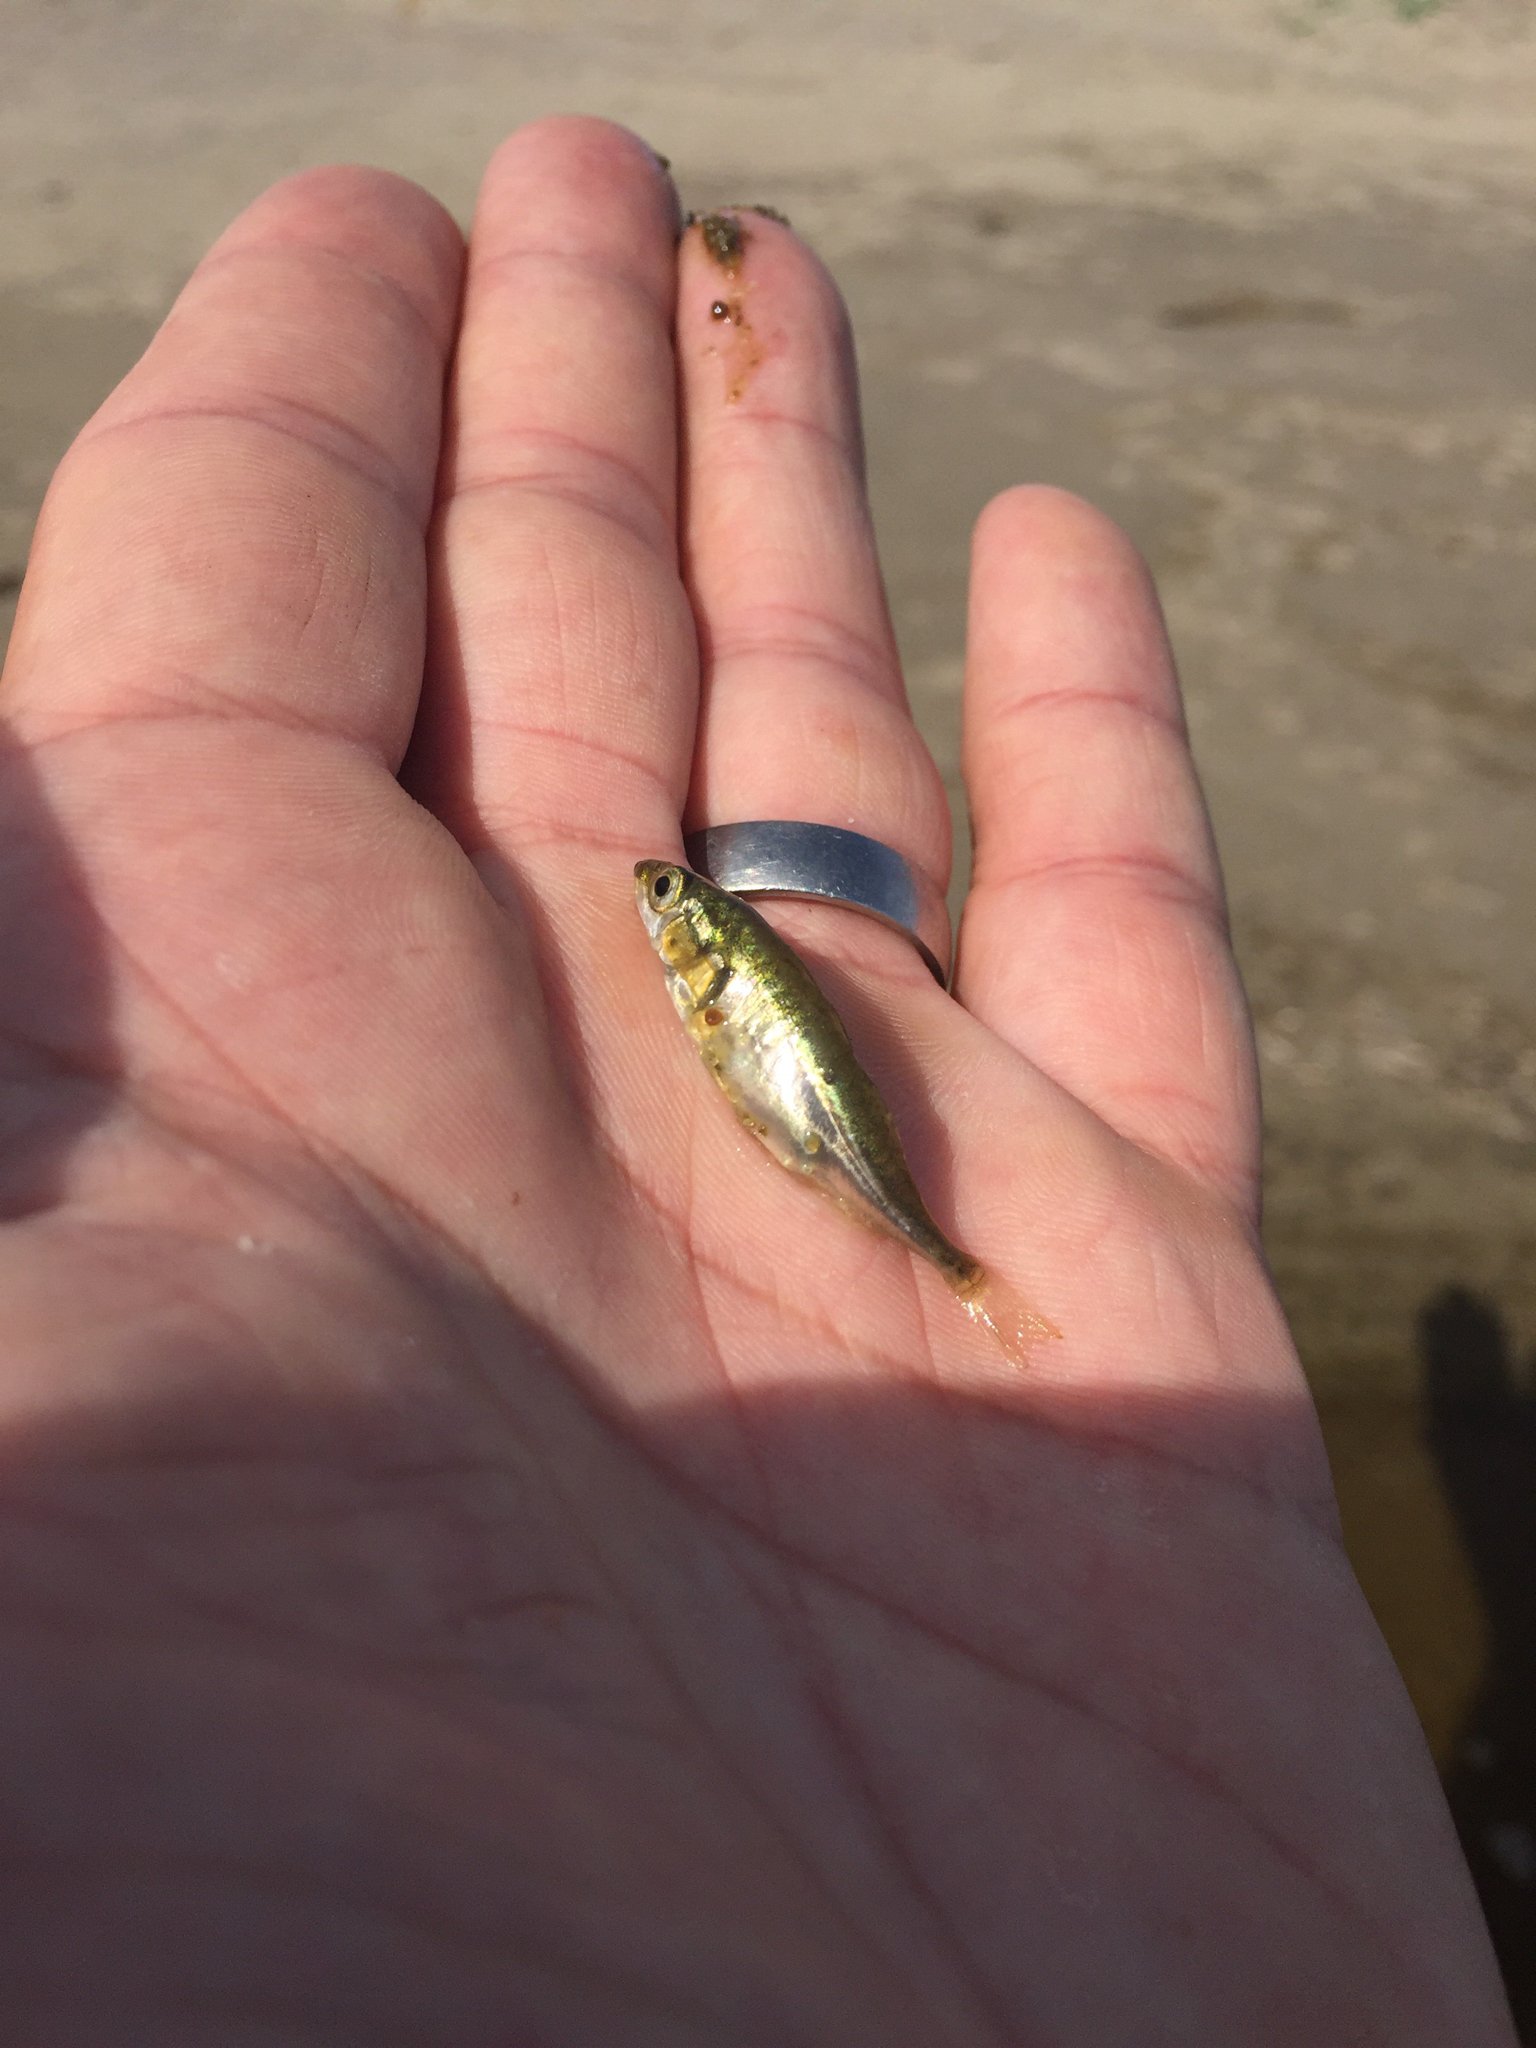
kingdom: Animalia
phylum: Chordata
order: Gasterosteiformes
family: Gasterosteidae
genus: Gasterosteus
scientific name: Gasterosteus aculeatus
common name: Three-spined stickleback
